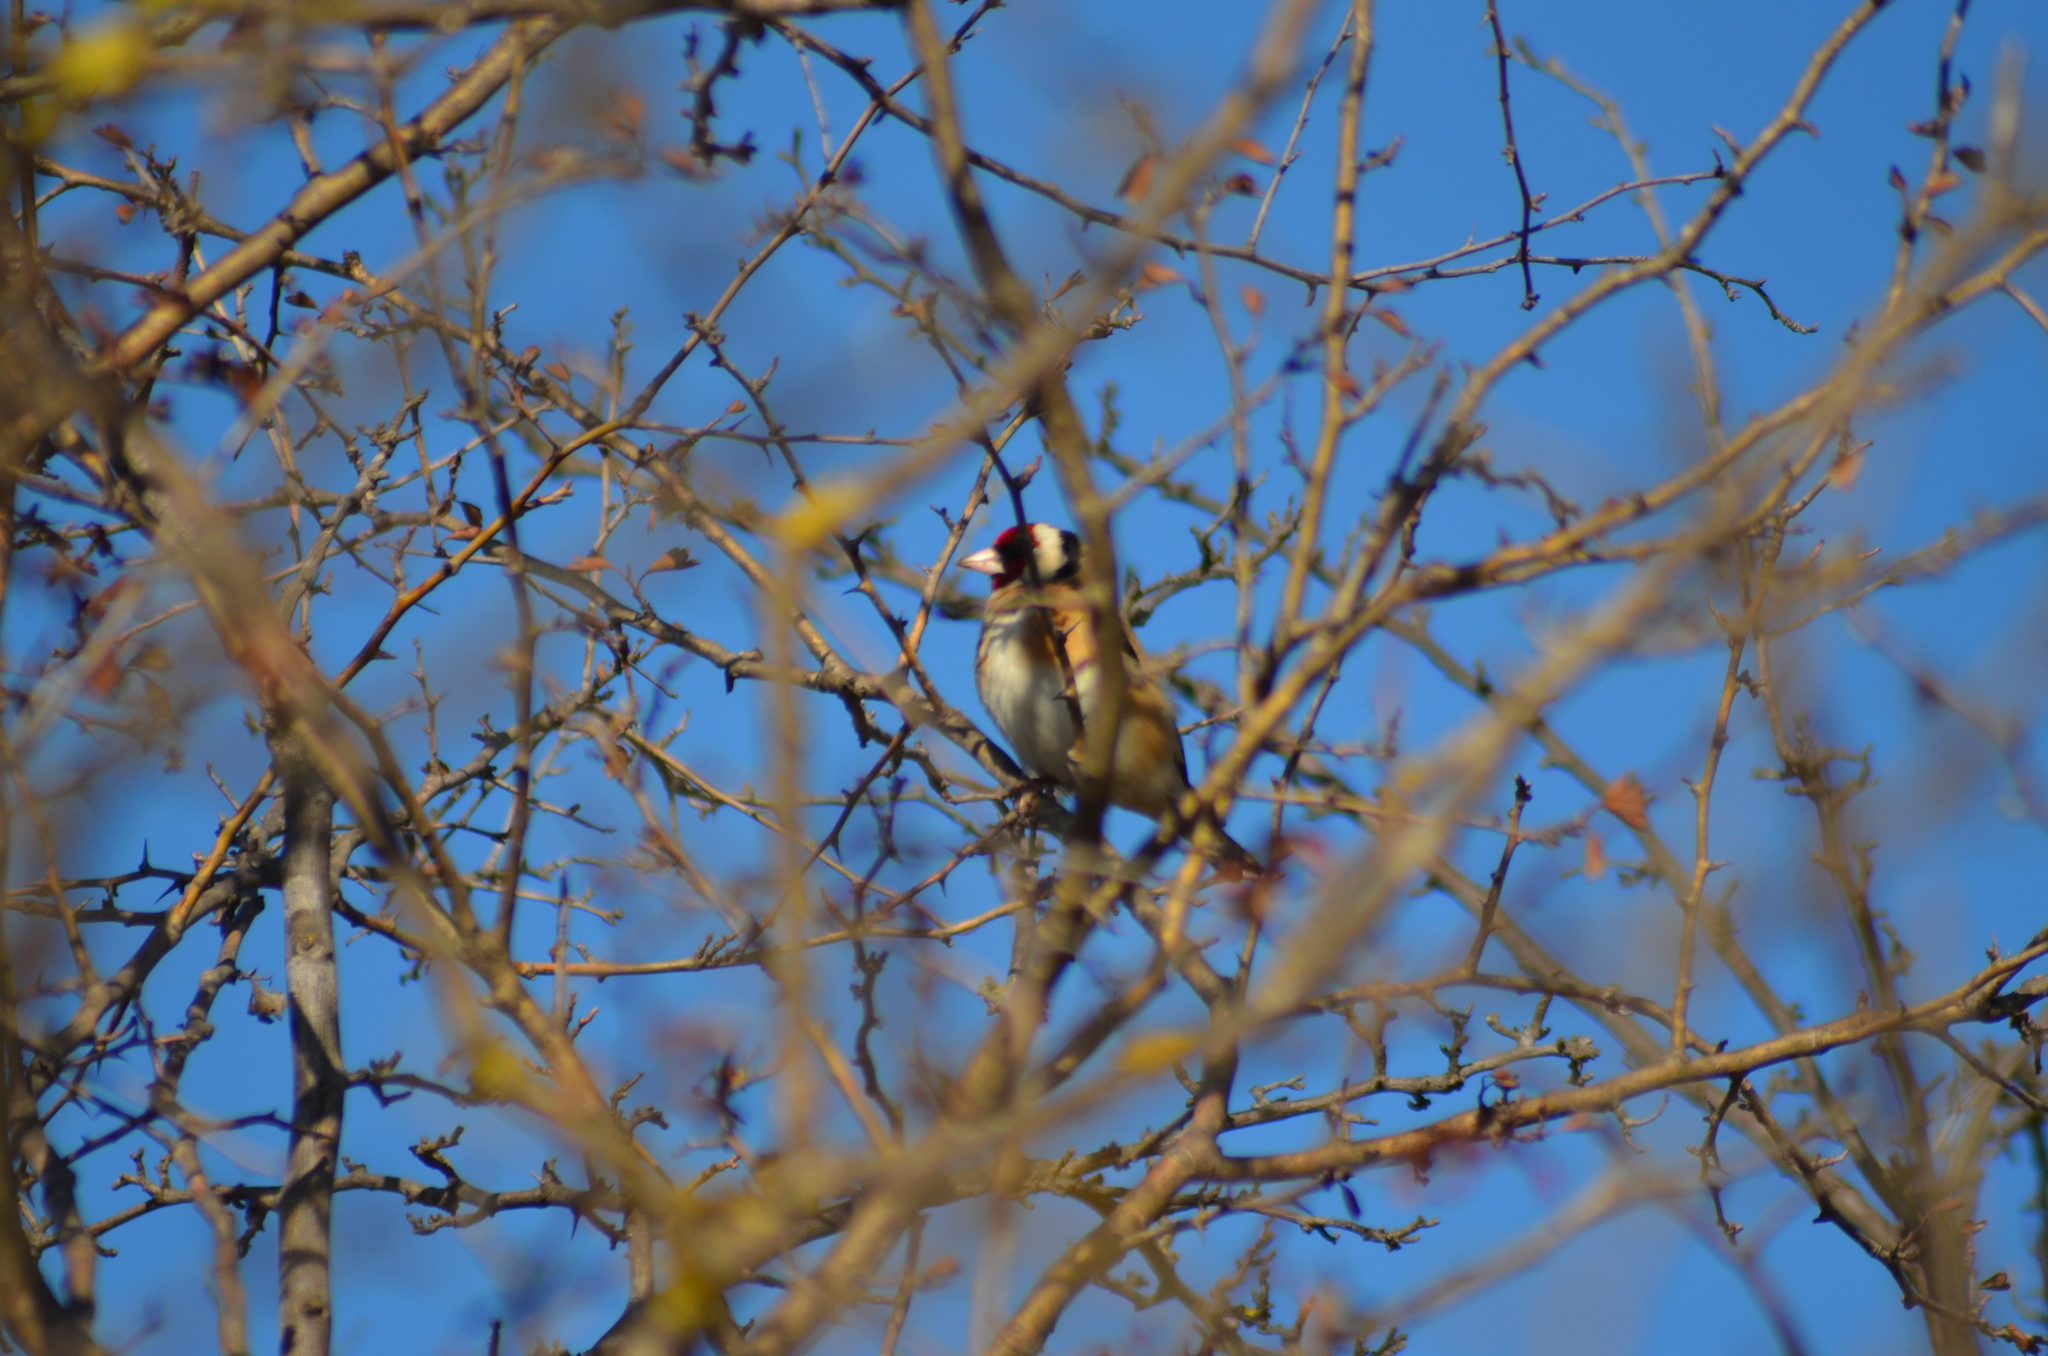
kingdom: Animalia
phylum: Chordata
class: Aves
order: Passeriformes
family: Fringillidae
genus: Carduelis
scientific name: Carduelis carduelis
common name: European goldfinch
